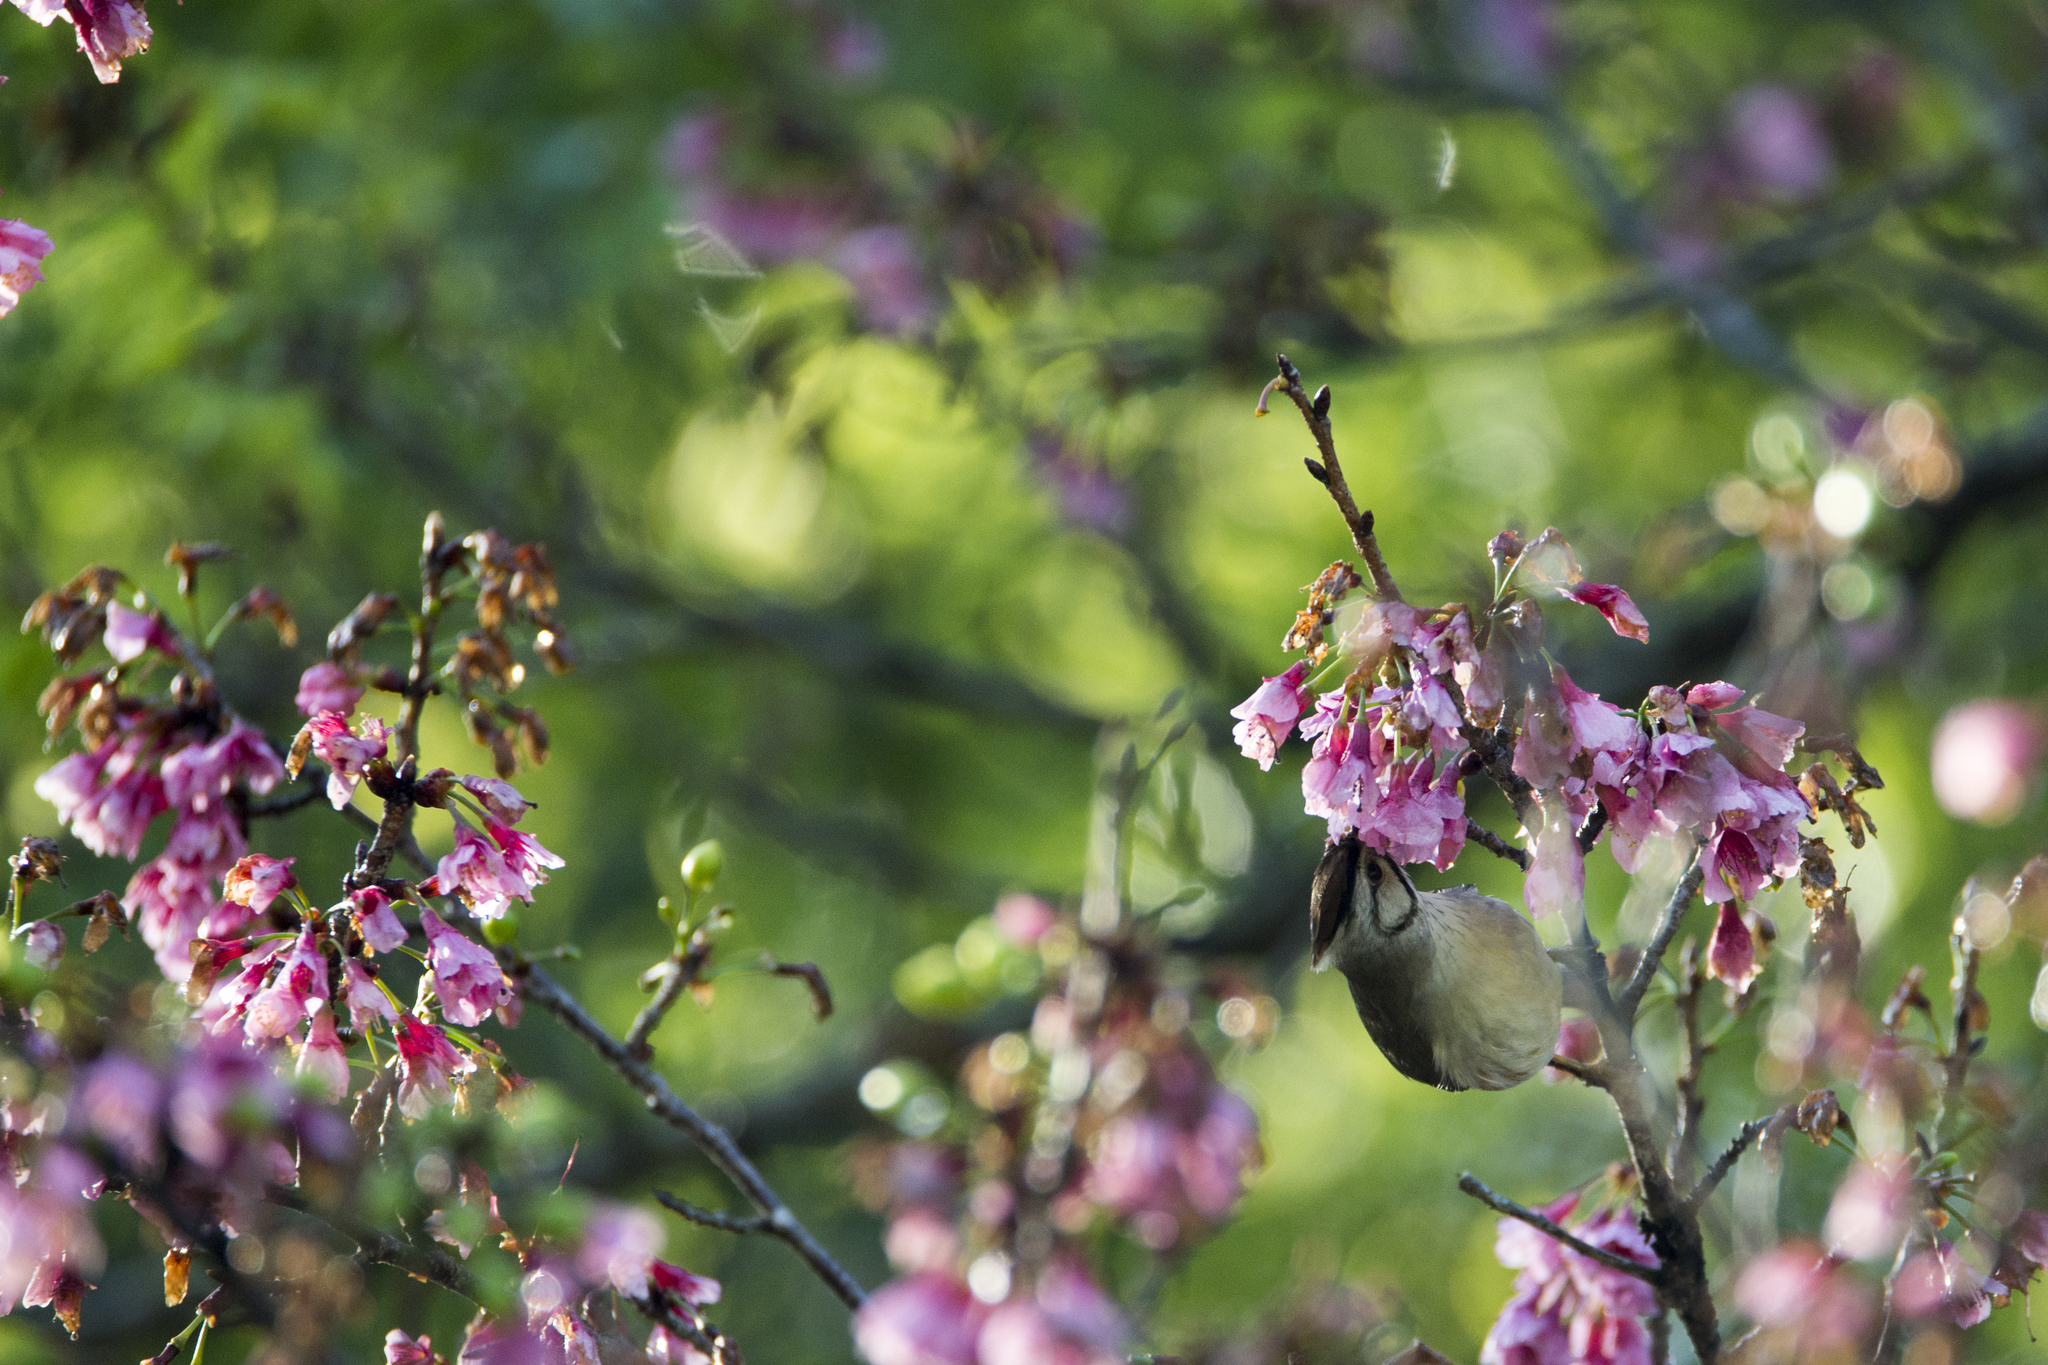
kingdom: Animalia
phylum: Chordata
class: Aves
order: Passeriformes
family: Zosteropidae
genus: Yuhina
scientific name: Yuhina brunneiceps
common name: Taiwan yuhina
